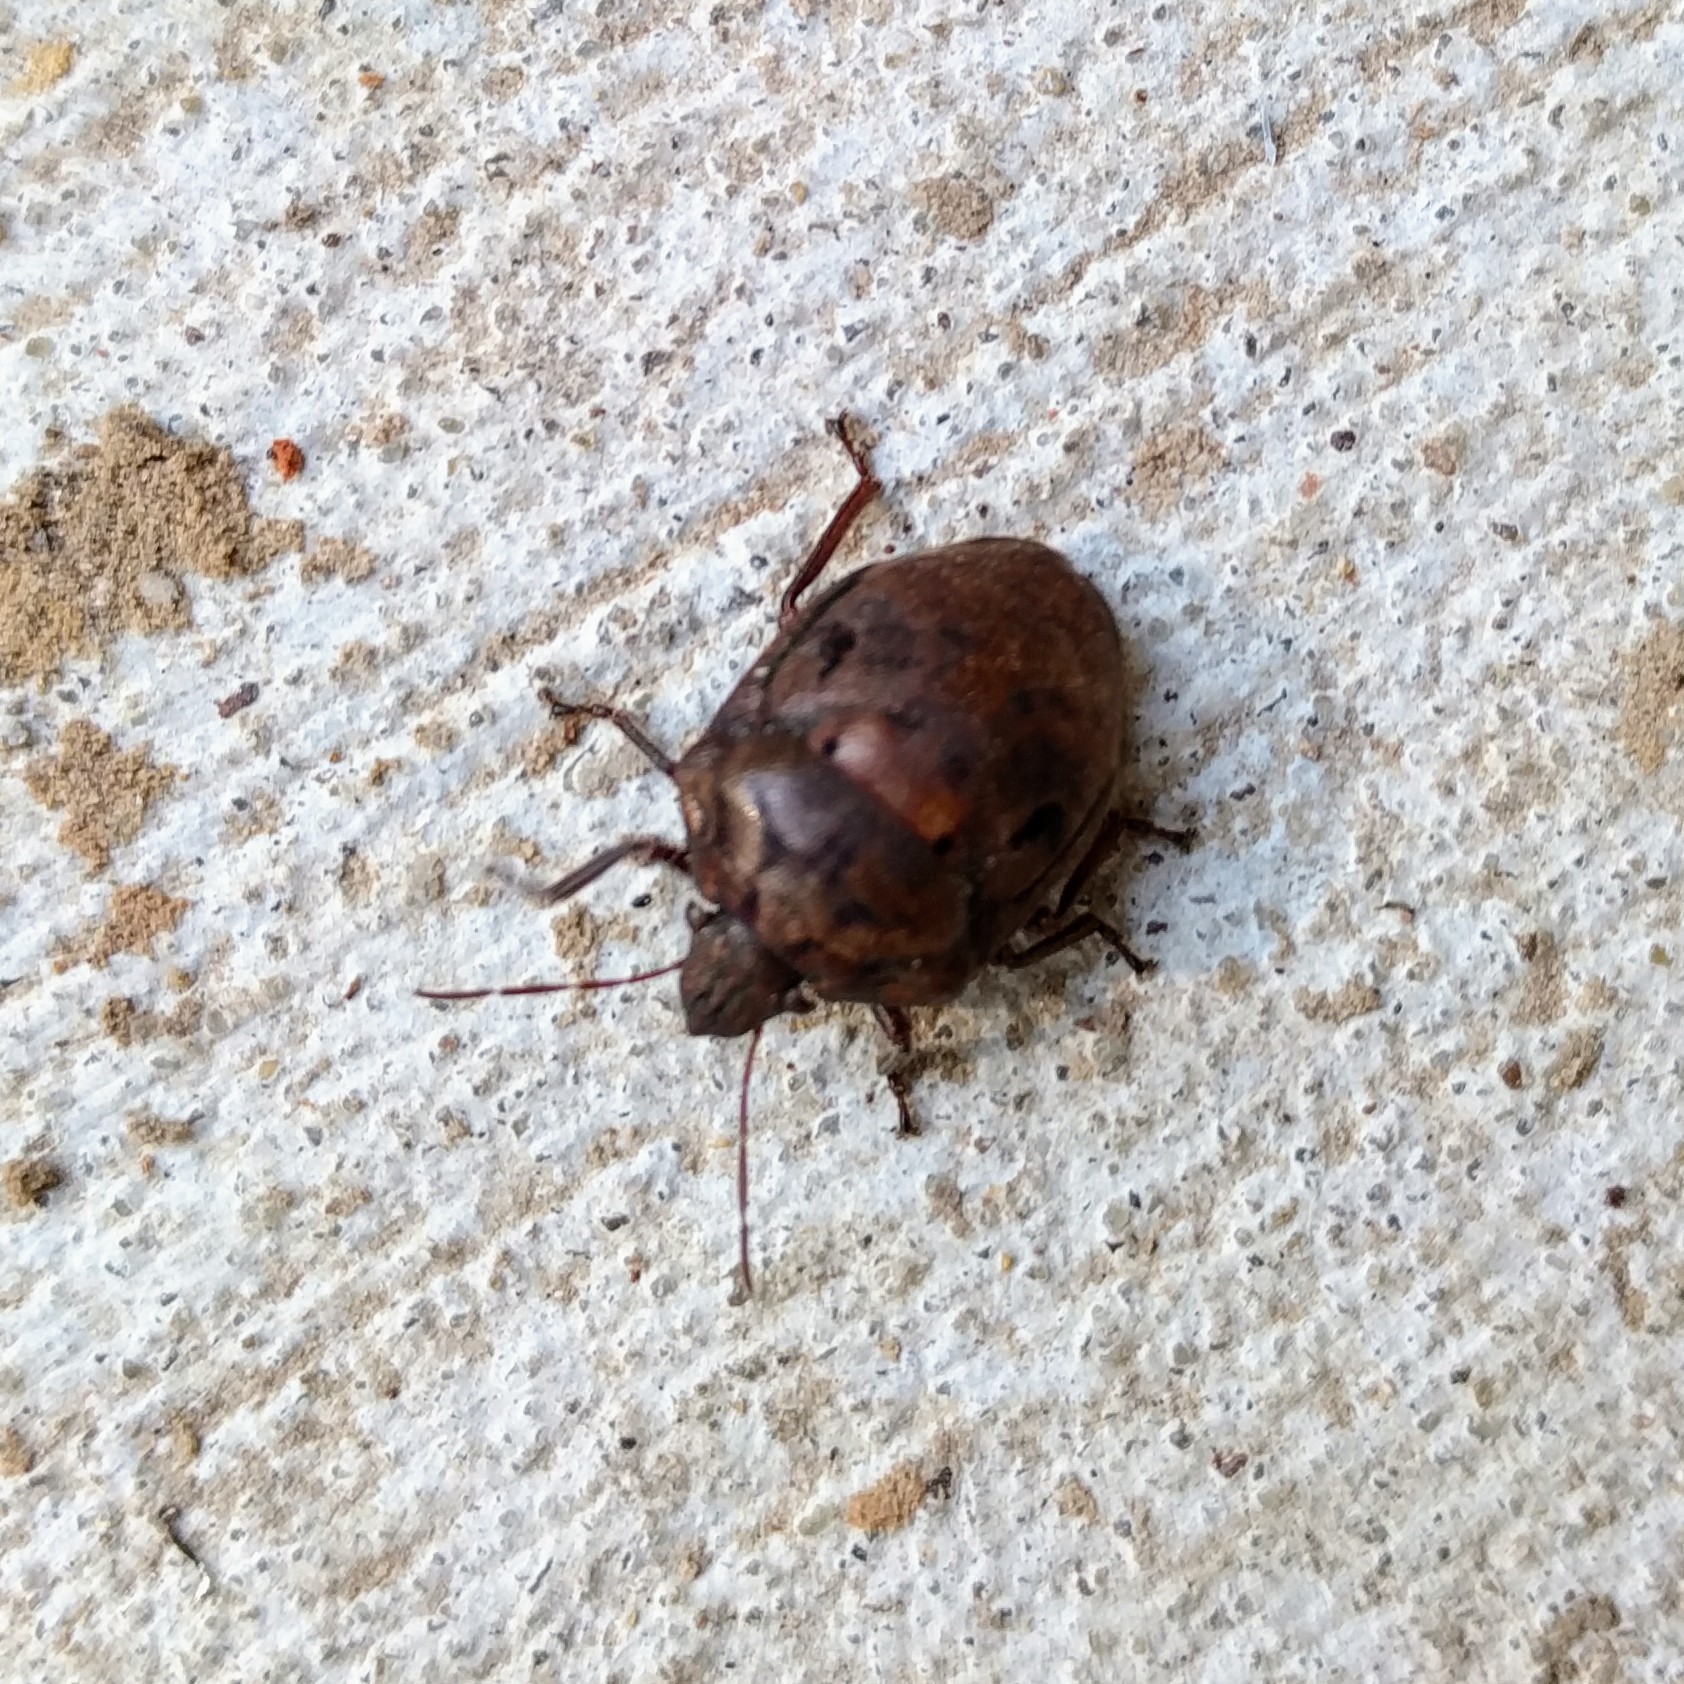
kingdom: Animalia
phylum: Arthropoda
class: Insecta
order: Hemiptera
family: Scutelleridae
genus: Tetyra
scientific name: Tetyra bipunctata
